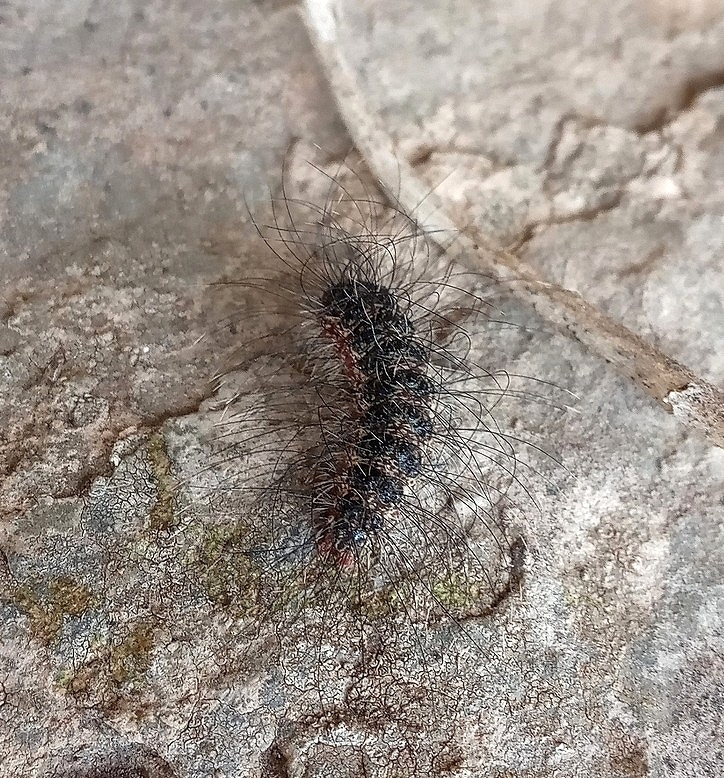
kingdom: Animalia
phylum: Arthropoda
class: Insecta
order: Lepidoptera
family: Erebidae
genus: Eudesmia
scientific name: Eudesmia
